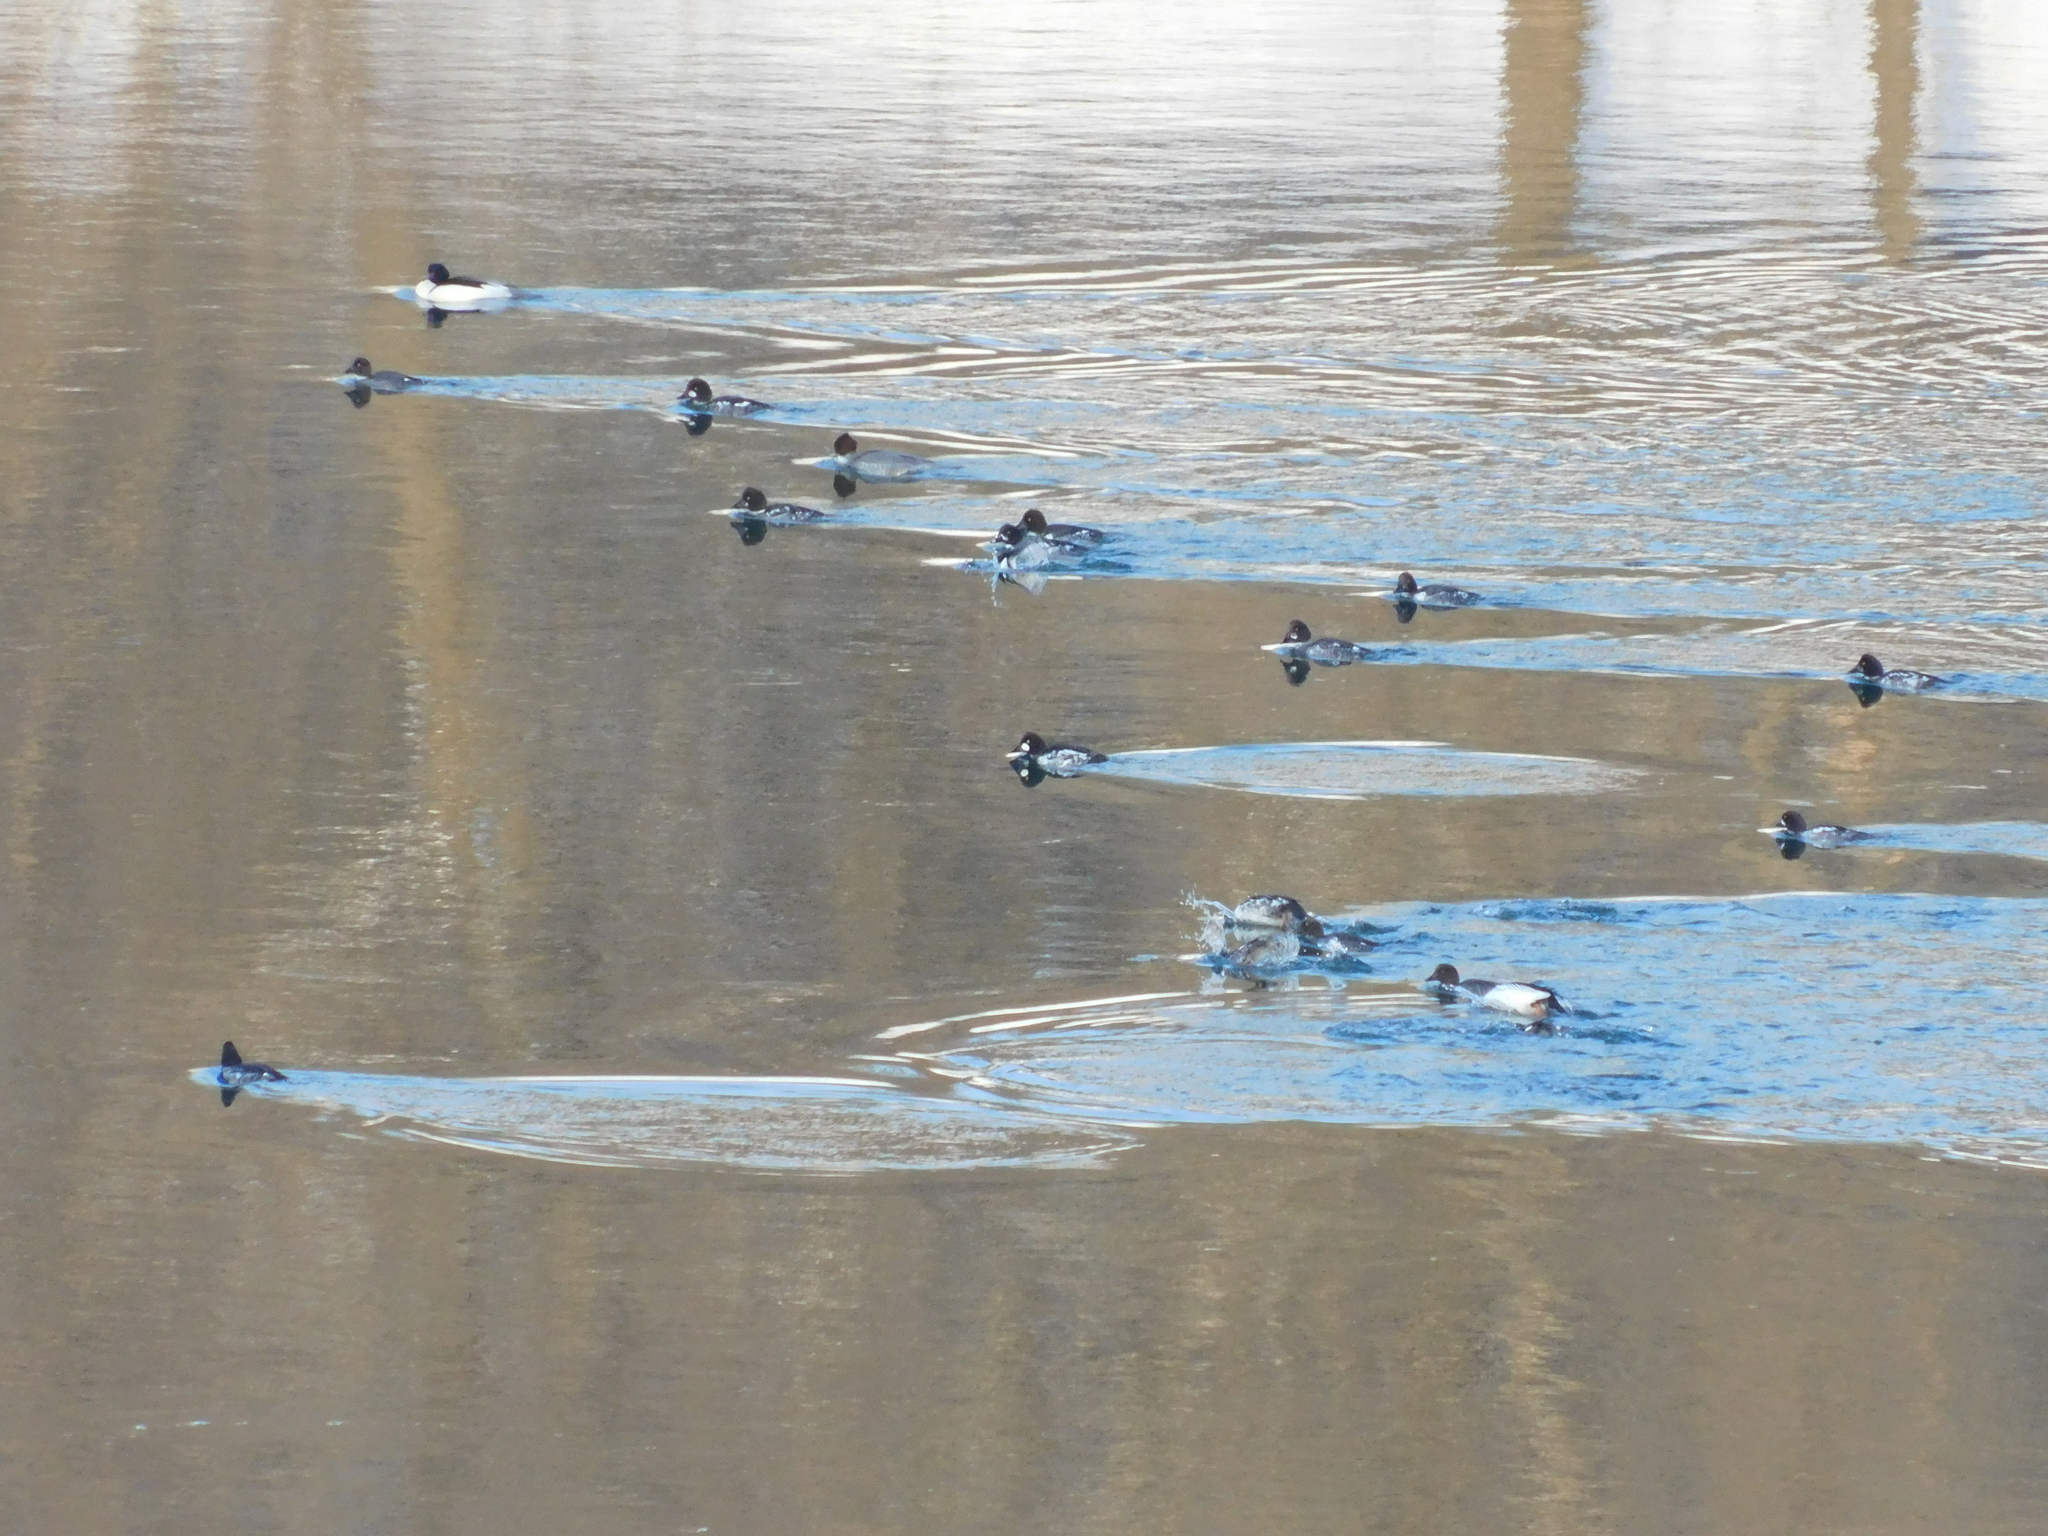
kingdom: Animalia
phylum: Chordata
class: Aves
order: Anseriformes
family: Anatidae
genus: Bucephala
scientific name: Bucephala clangula
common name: Common goldeneye
